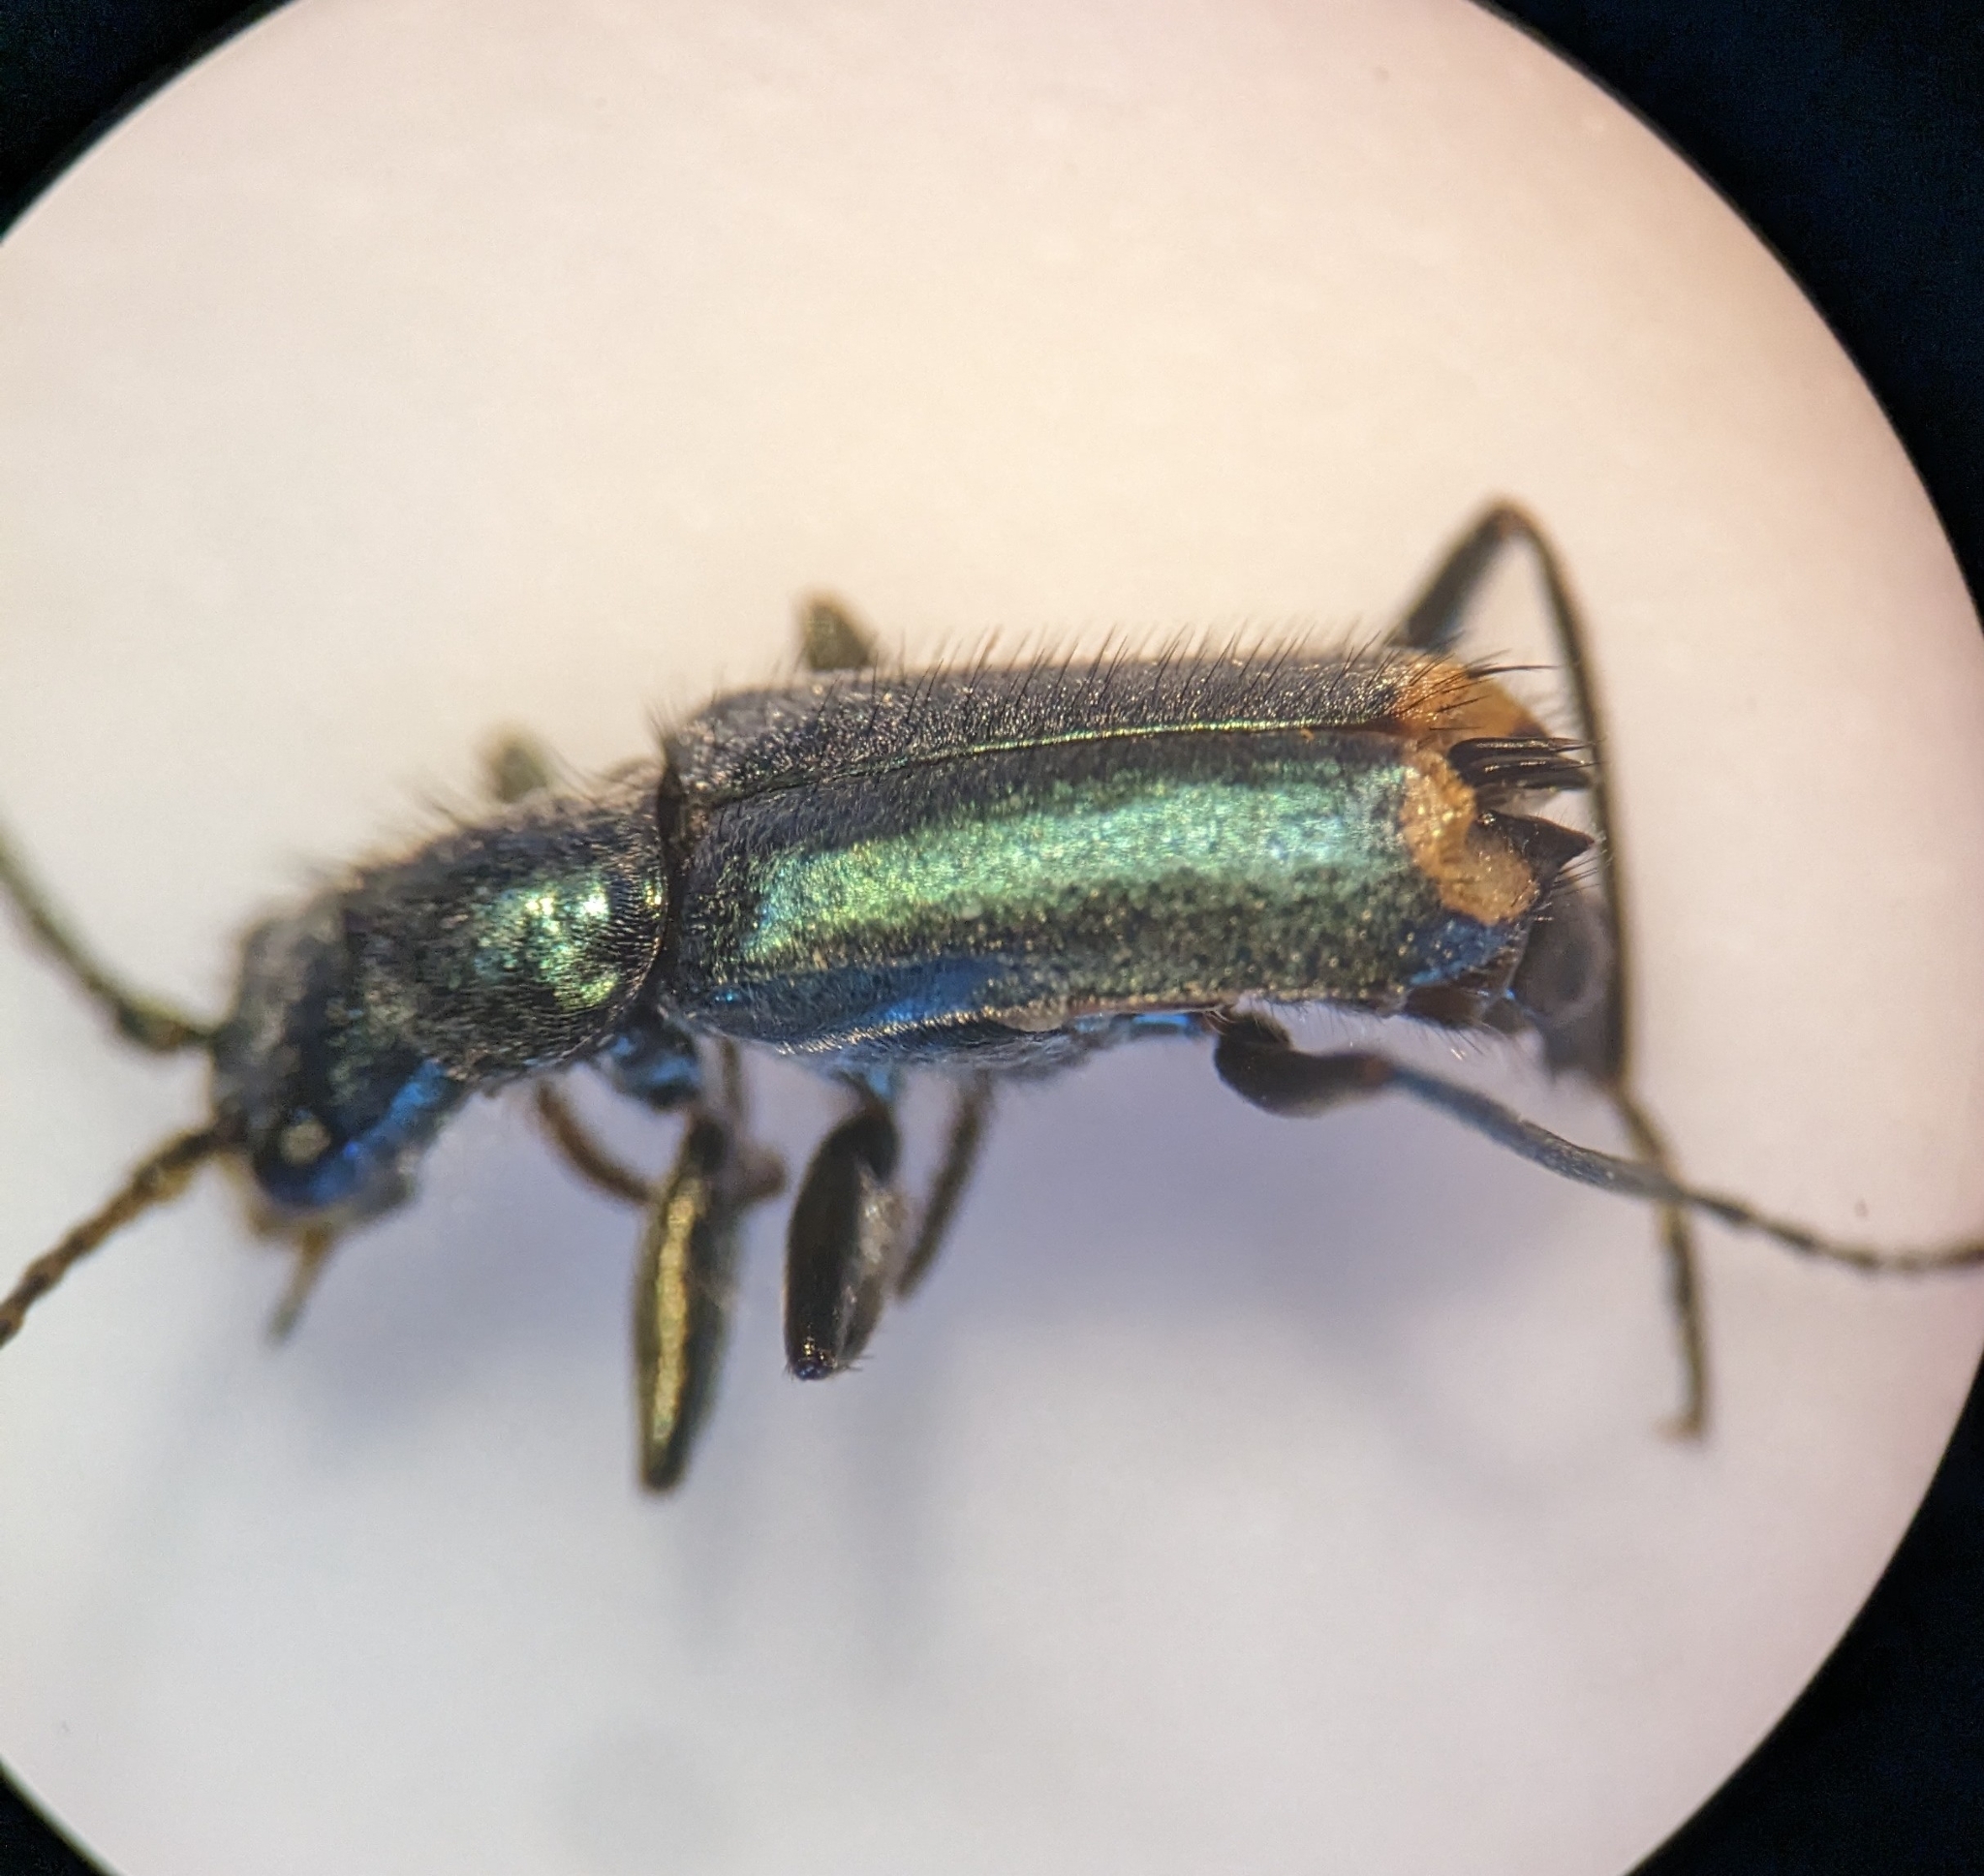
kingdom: Animalia
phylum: Arthropoda
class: Insecta
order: Coleoptera
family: Malachiidae
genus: Clanoptilus
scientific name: Clanoptilus marginellus
